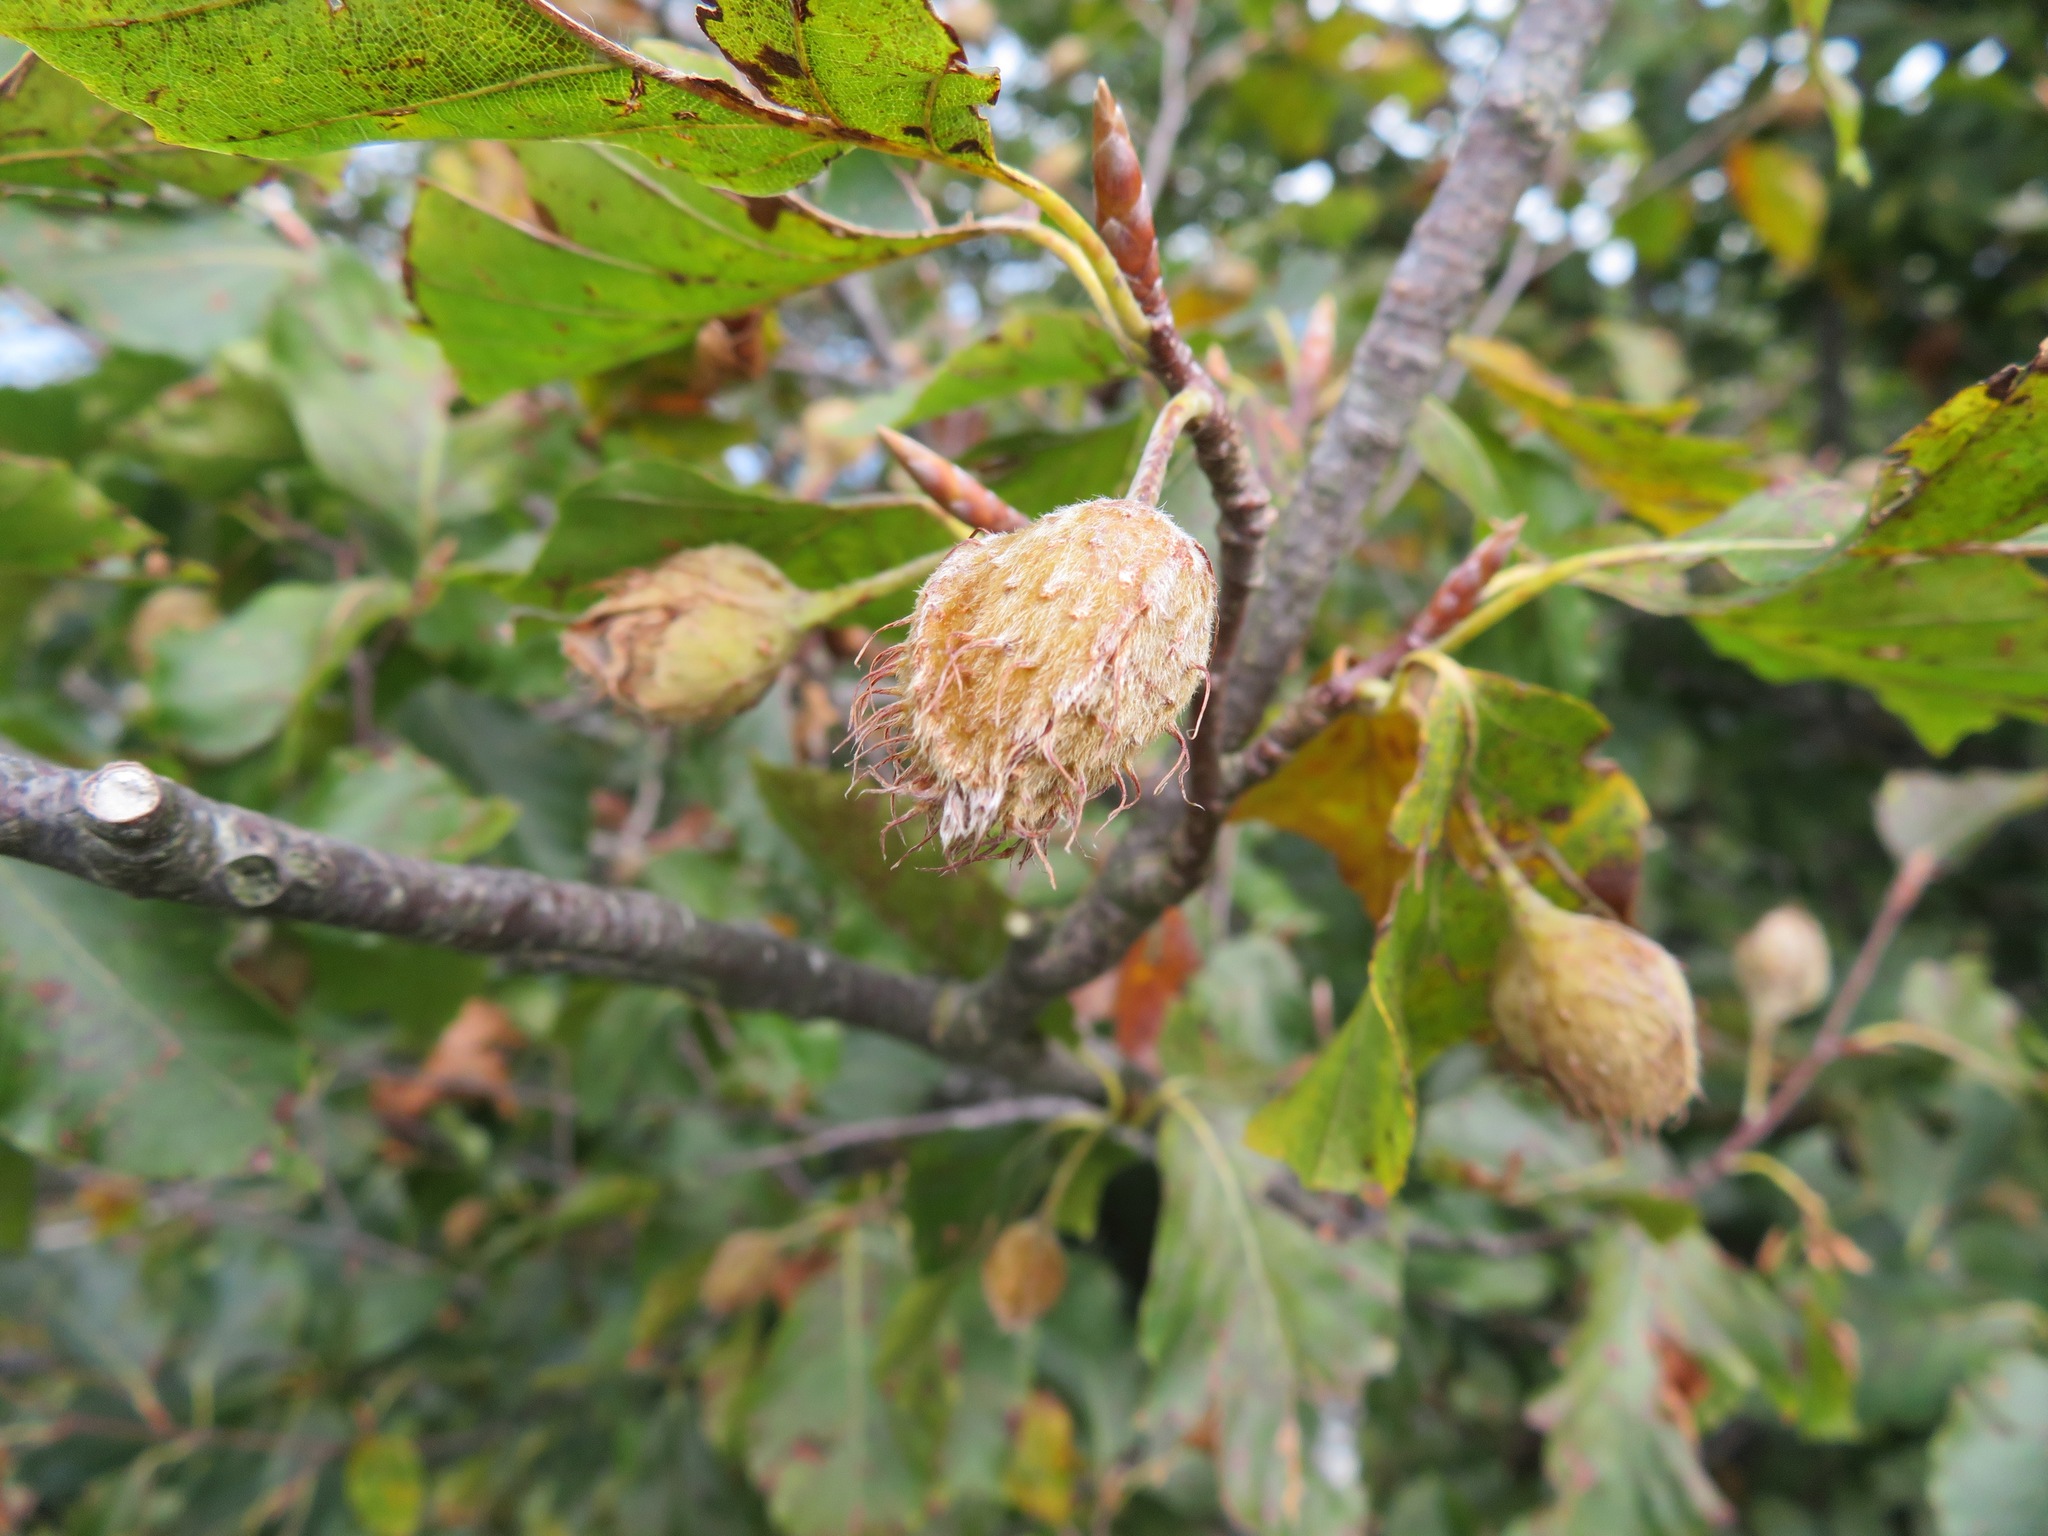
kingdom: Plantae
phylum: Tracheophyta
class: Magnoliopsida
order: Fagales
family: Fagaceae
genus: Fagus
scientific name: Fagus sylvatica
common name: Beech
